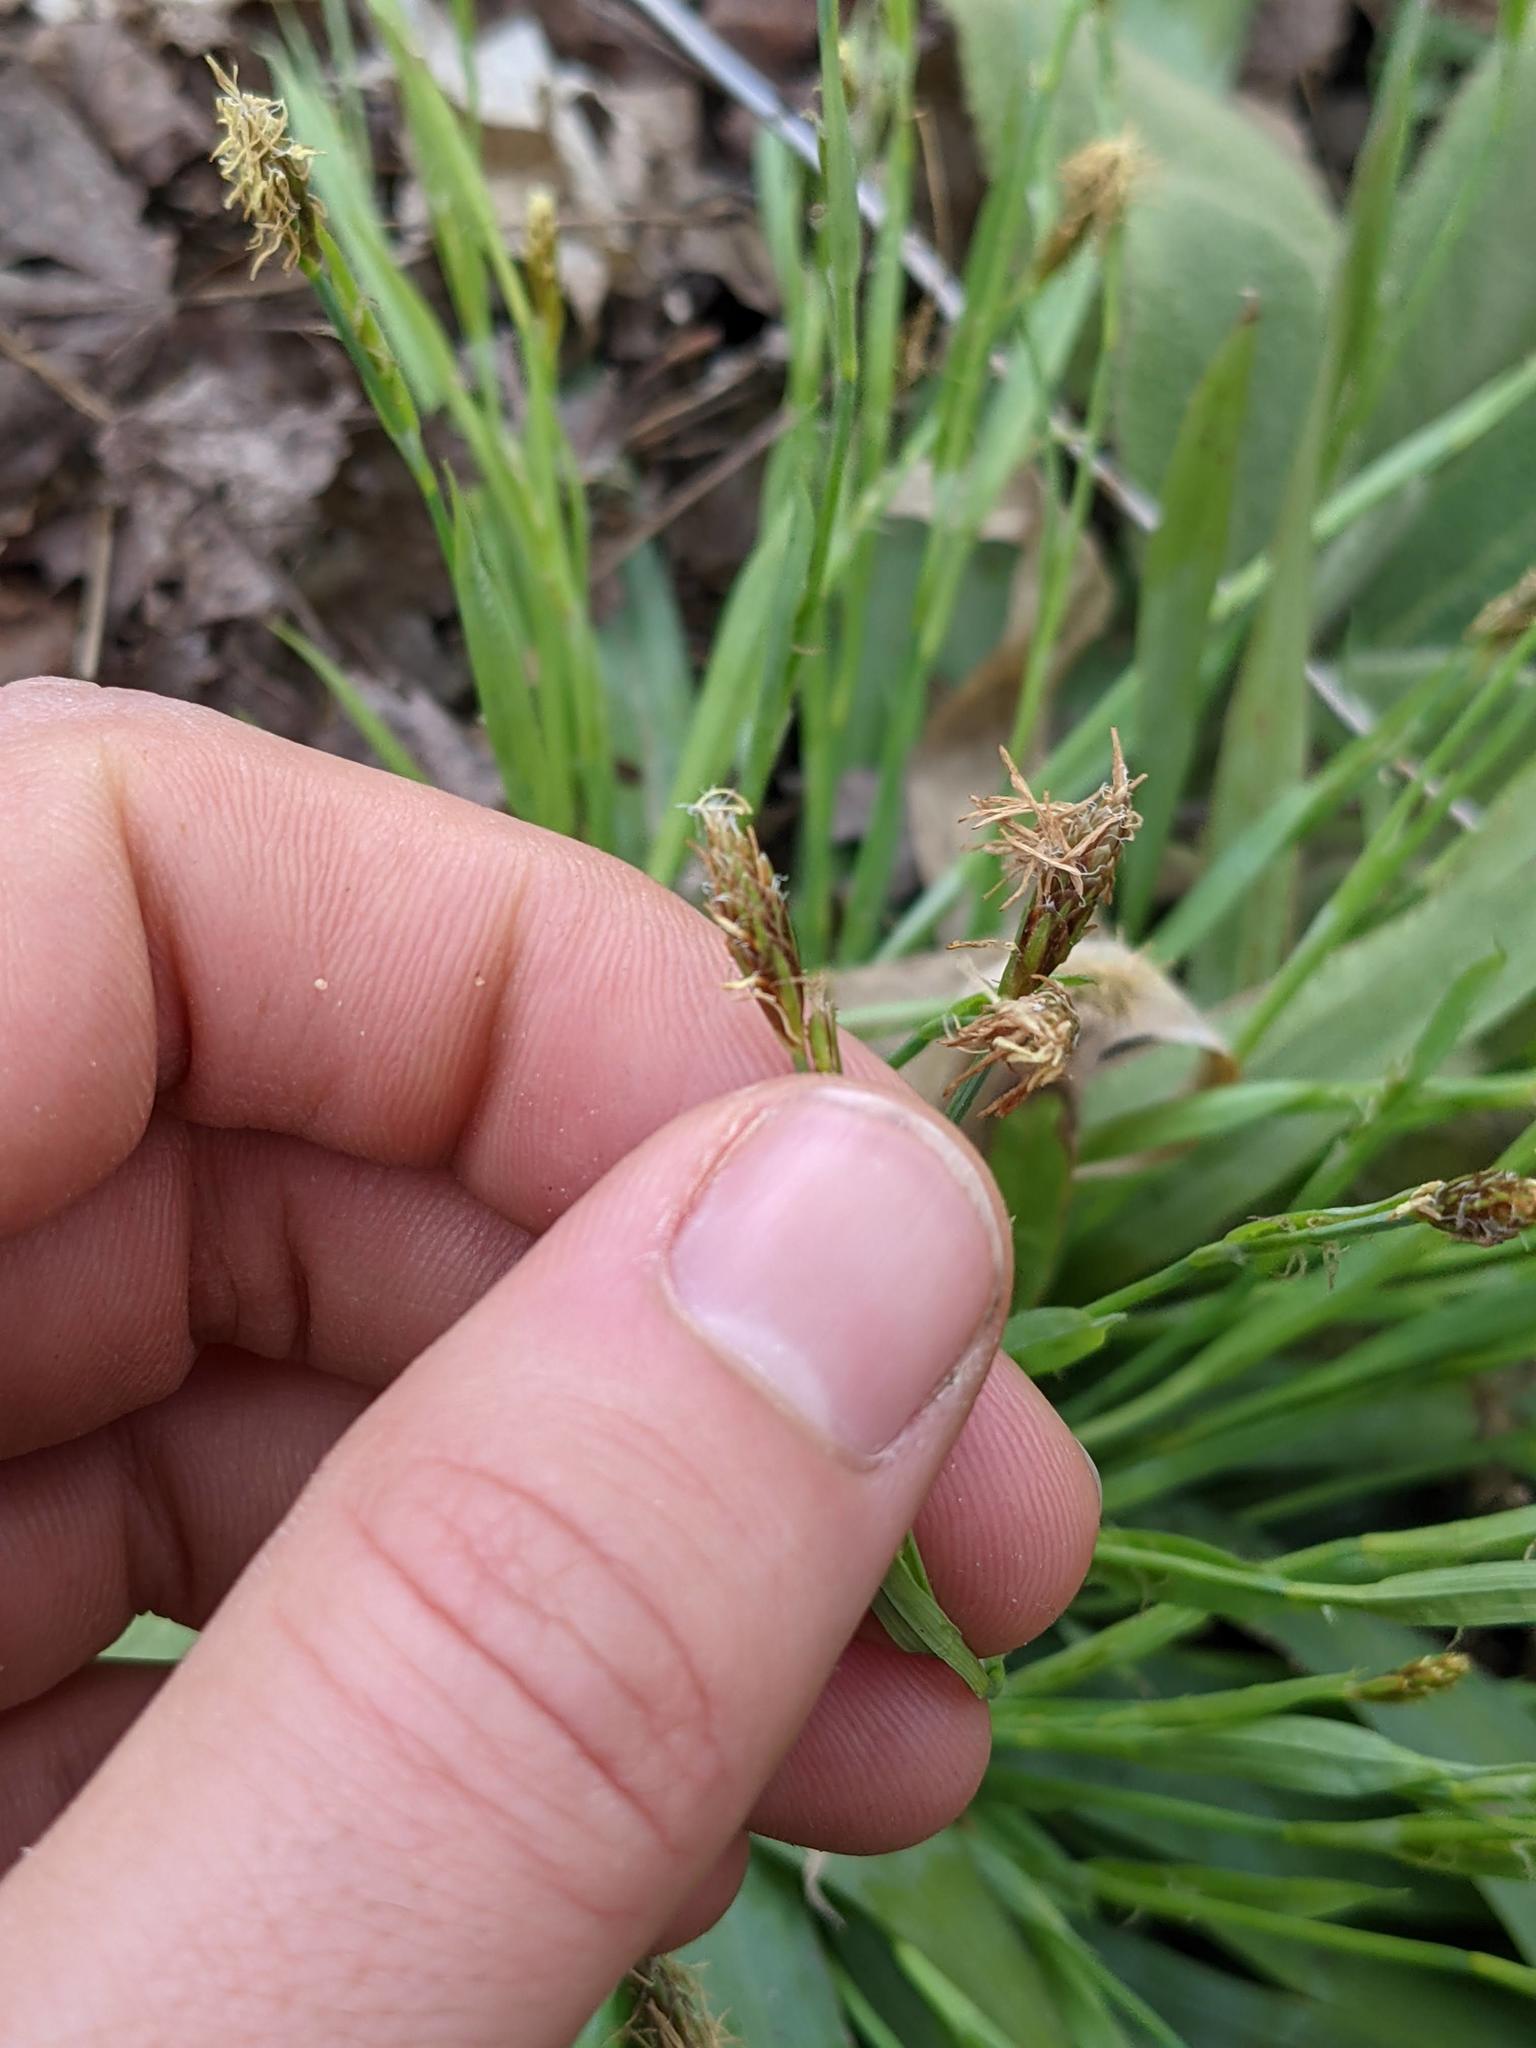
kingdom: Plantae
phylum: Tracheophyta
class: Liliopsida
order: Poales
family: Cyperaceae
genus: Carex
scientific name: Carex platyphylla
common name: Broad-leaved sedge
